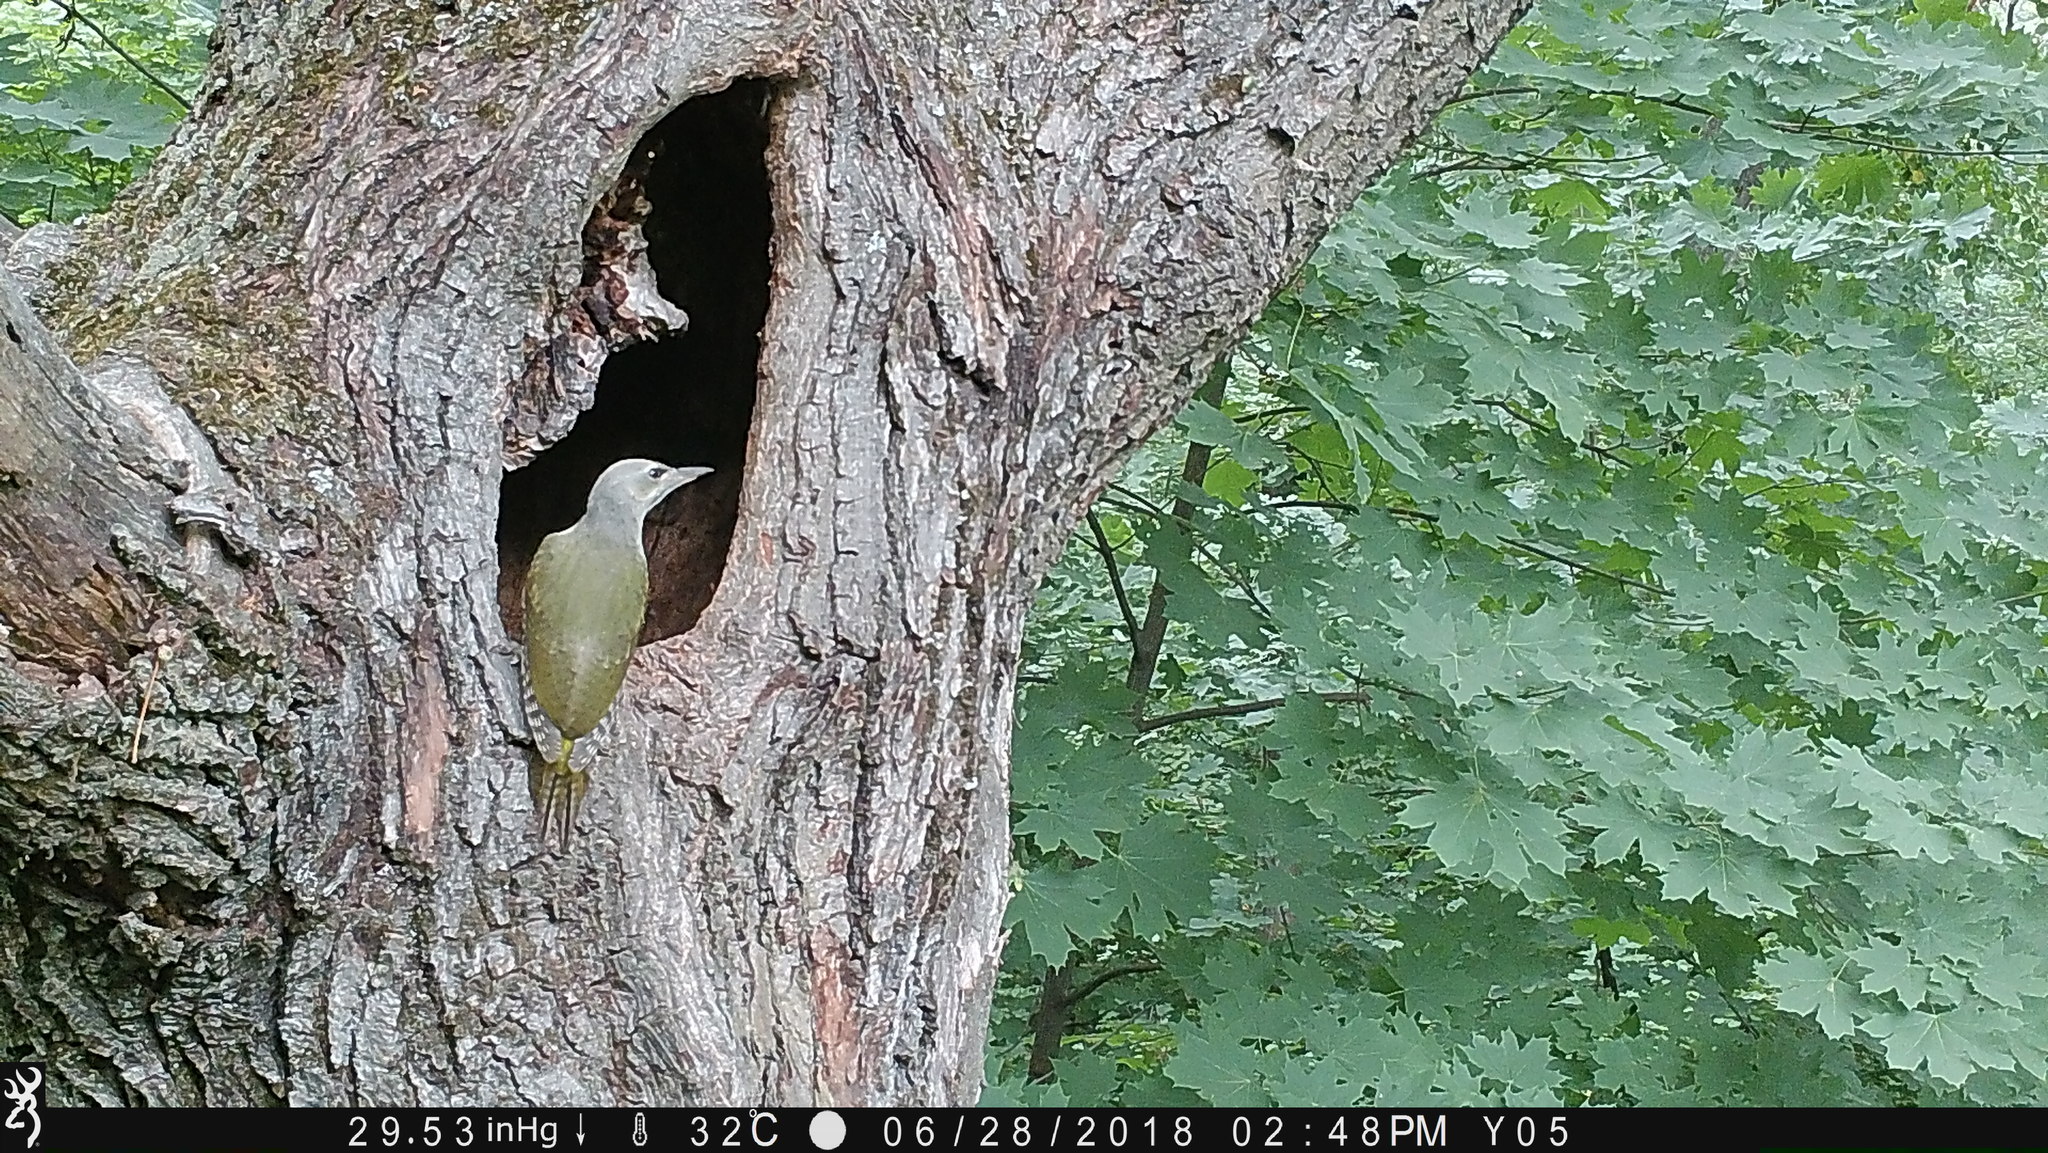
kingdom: Animalia
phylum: Chordata
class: Aves
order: Piciformes
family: Picidae
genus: Picus
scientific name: Picus canus
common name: Grey-headed woodpecker
